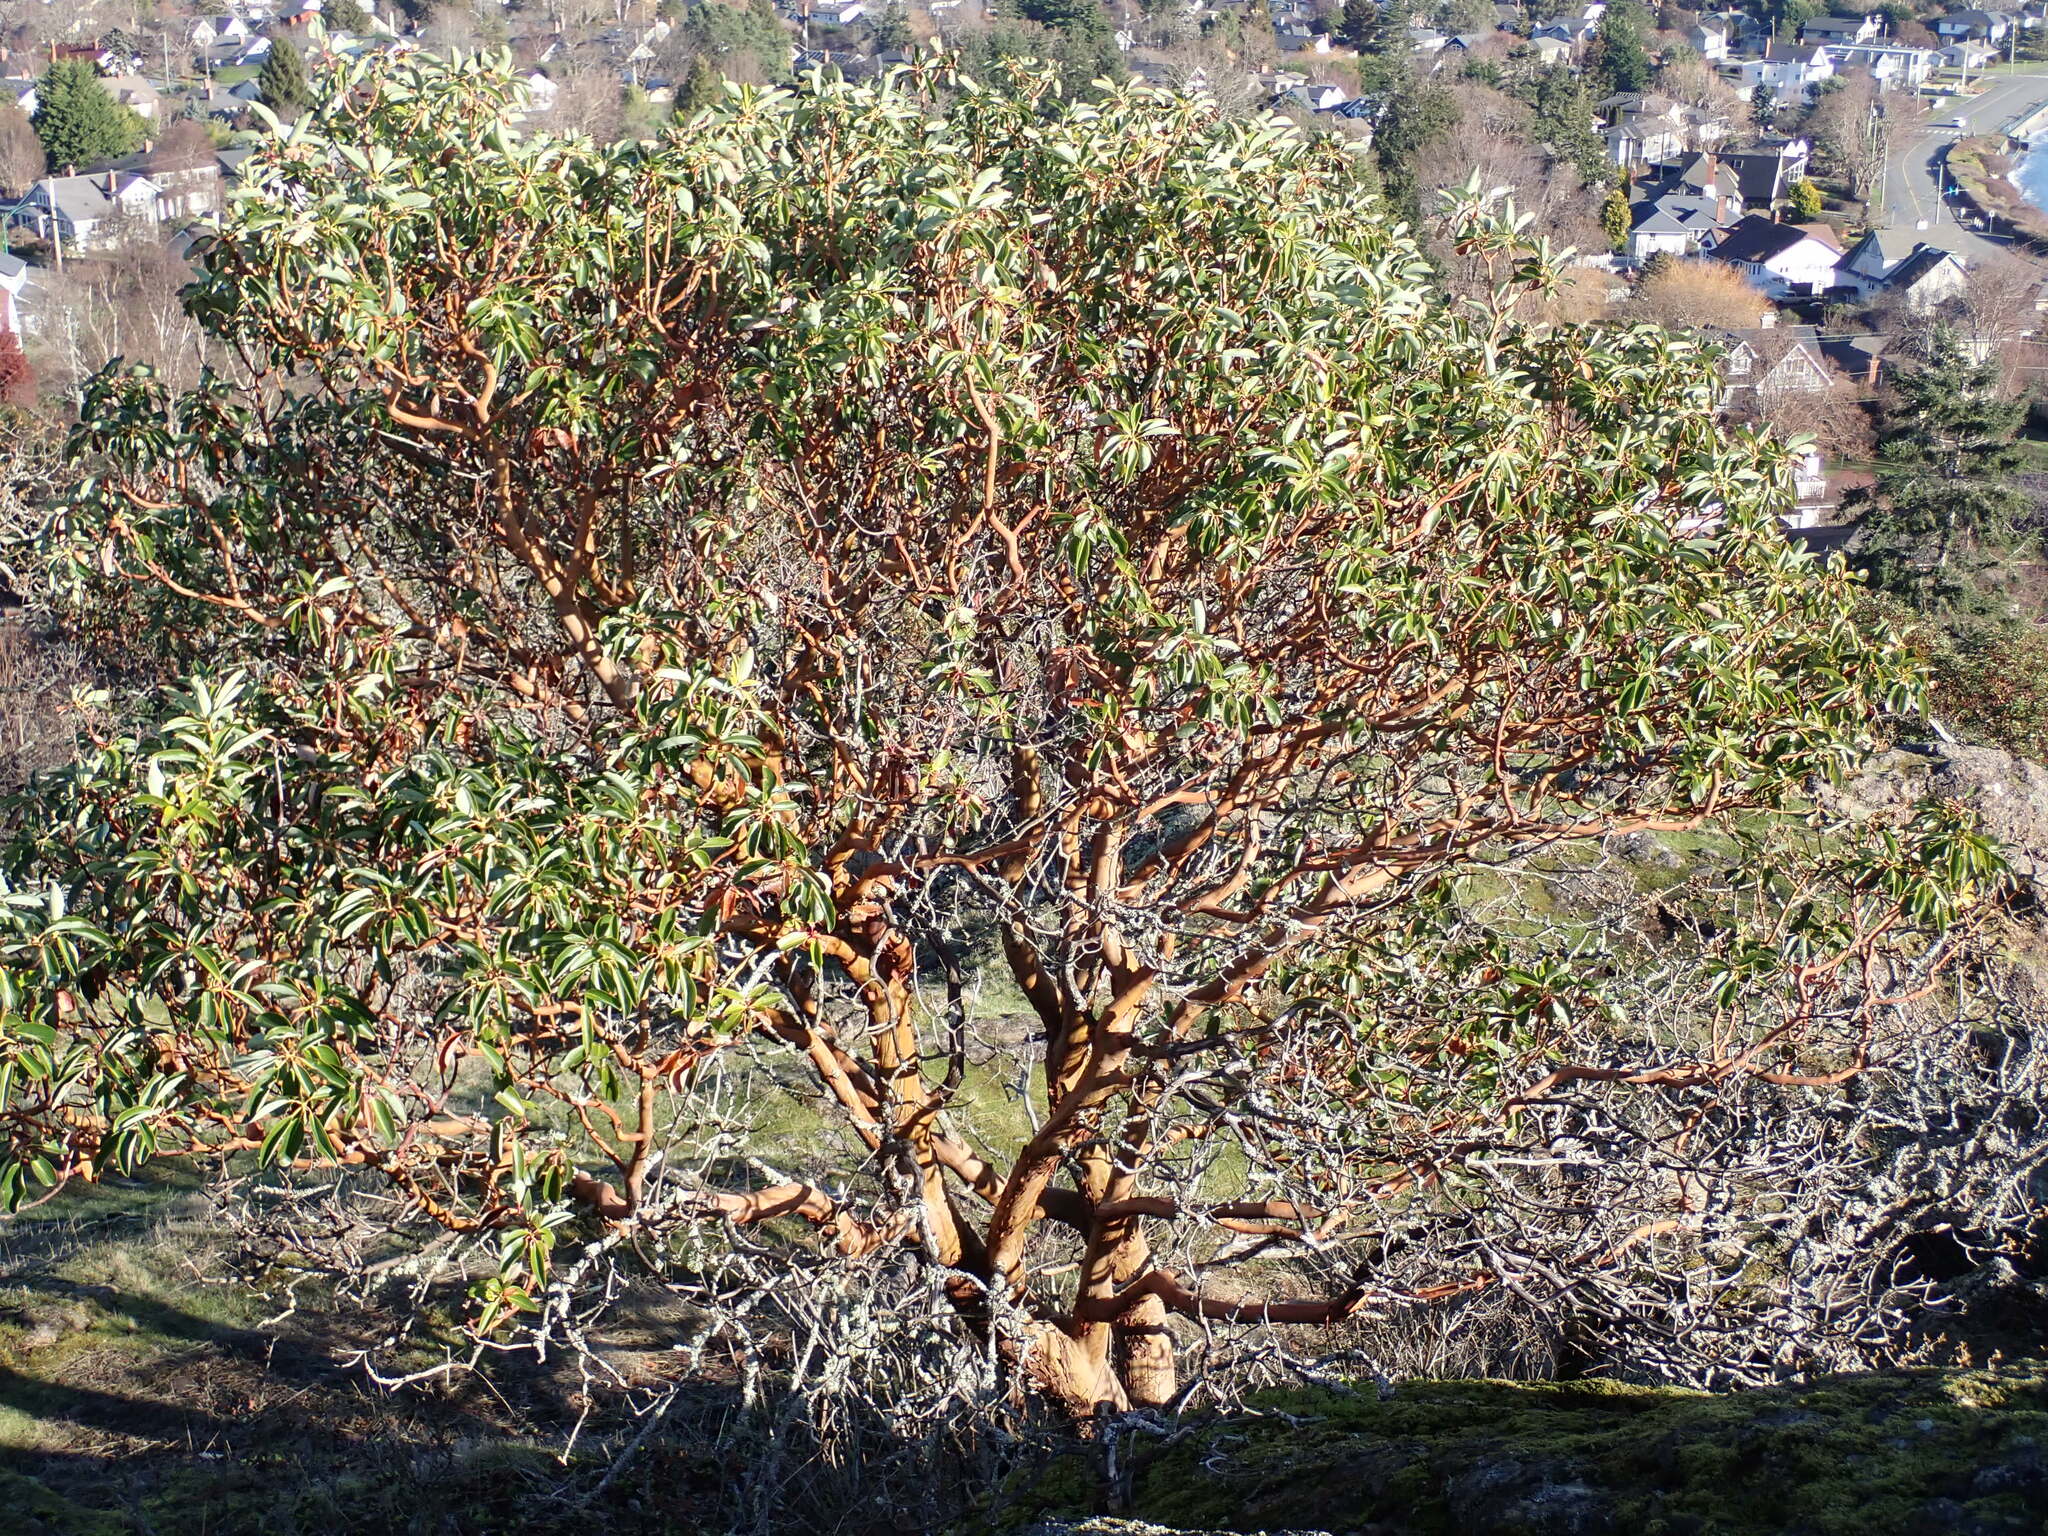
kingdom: Plantae
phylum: Tracheophyta
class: Magnoliopsida
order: Ericales
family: Ericaceae
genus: Arbutus
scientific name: Arbutus menziesii
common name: Pacific madrone
